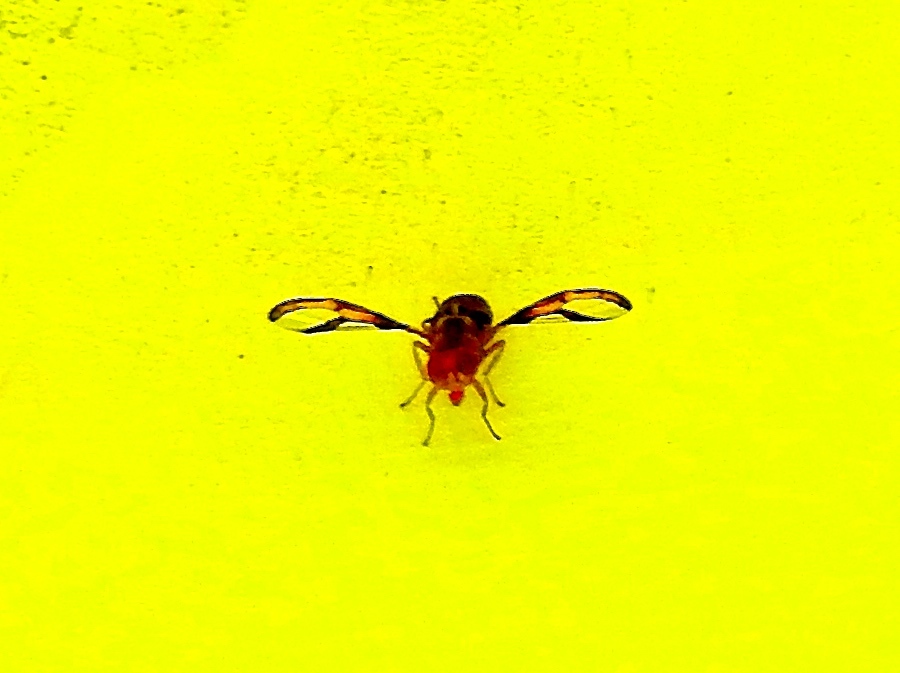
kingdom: Animalia
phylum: Arthropoda
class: Insecta
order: Diptera
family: Ulidiidae
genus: Xanthacrona
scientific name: Xanthacrona
